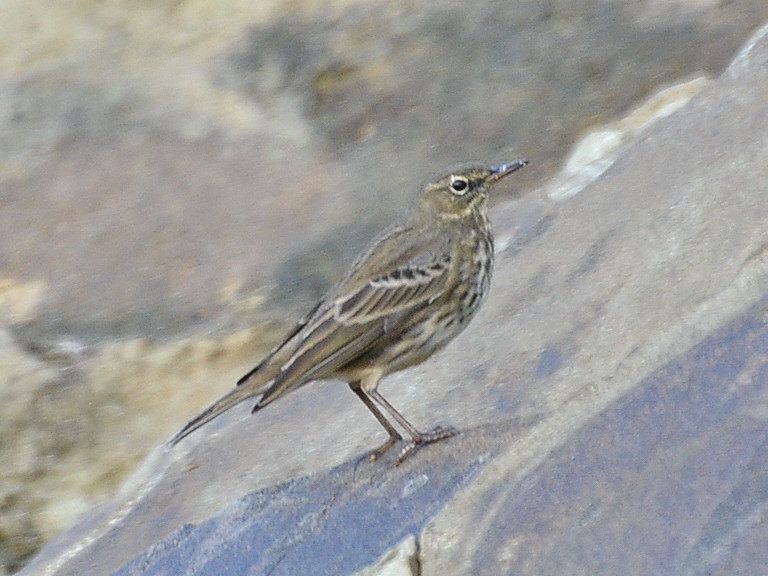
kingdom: Animalia
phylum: Chordata
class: Aves
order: Passeriformes
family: Motacillidae
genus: Anthus
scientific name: Anthus petrosus
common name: Eurasian rock pipit
